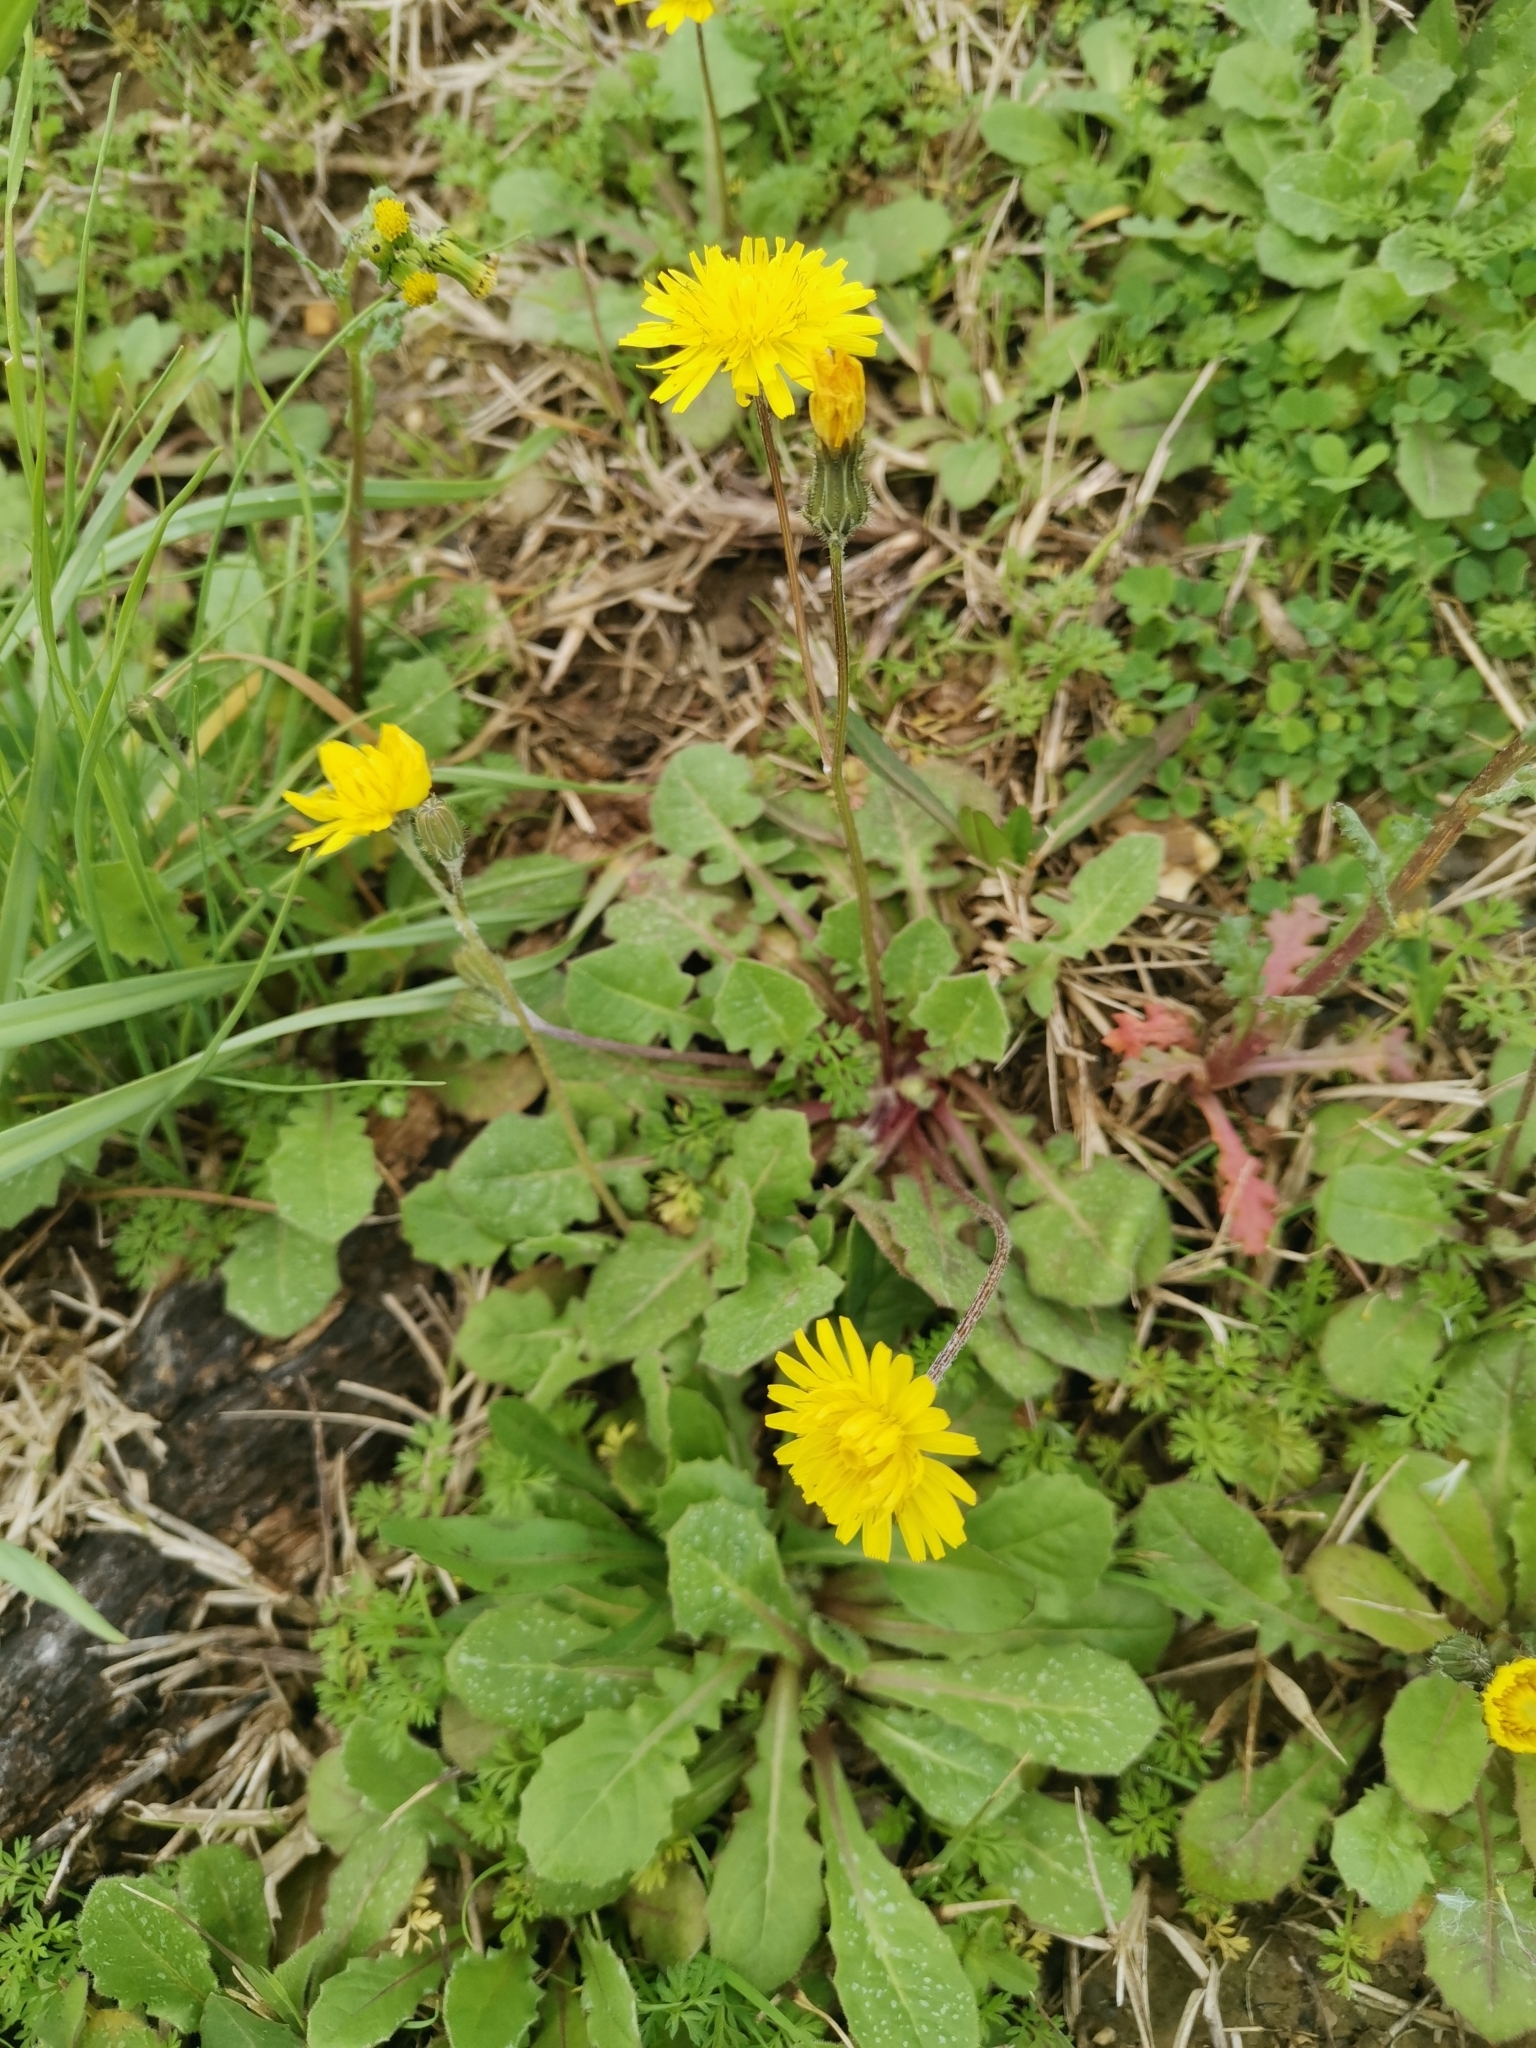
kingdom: Plantae
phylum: Tracheophyta
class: Magnoliopsida
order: Asterales
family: Asteraceae
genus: Crepis
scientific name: Crepis sancta
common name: Hawk's-beard
